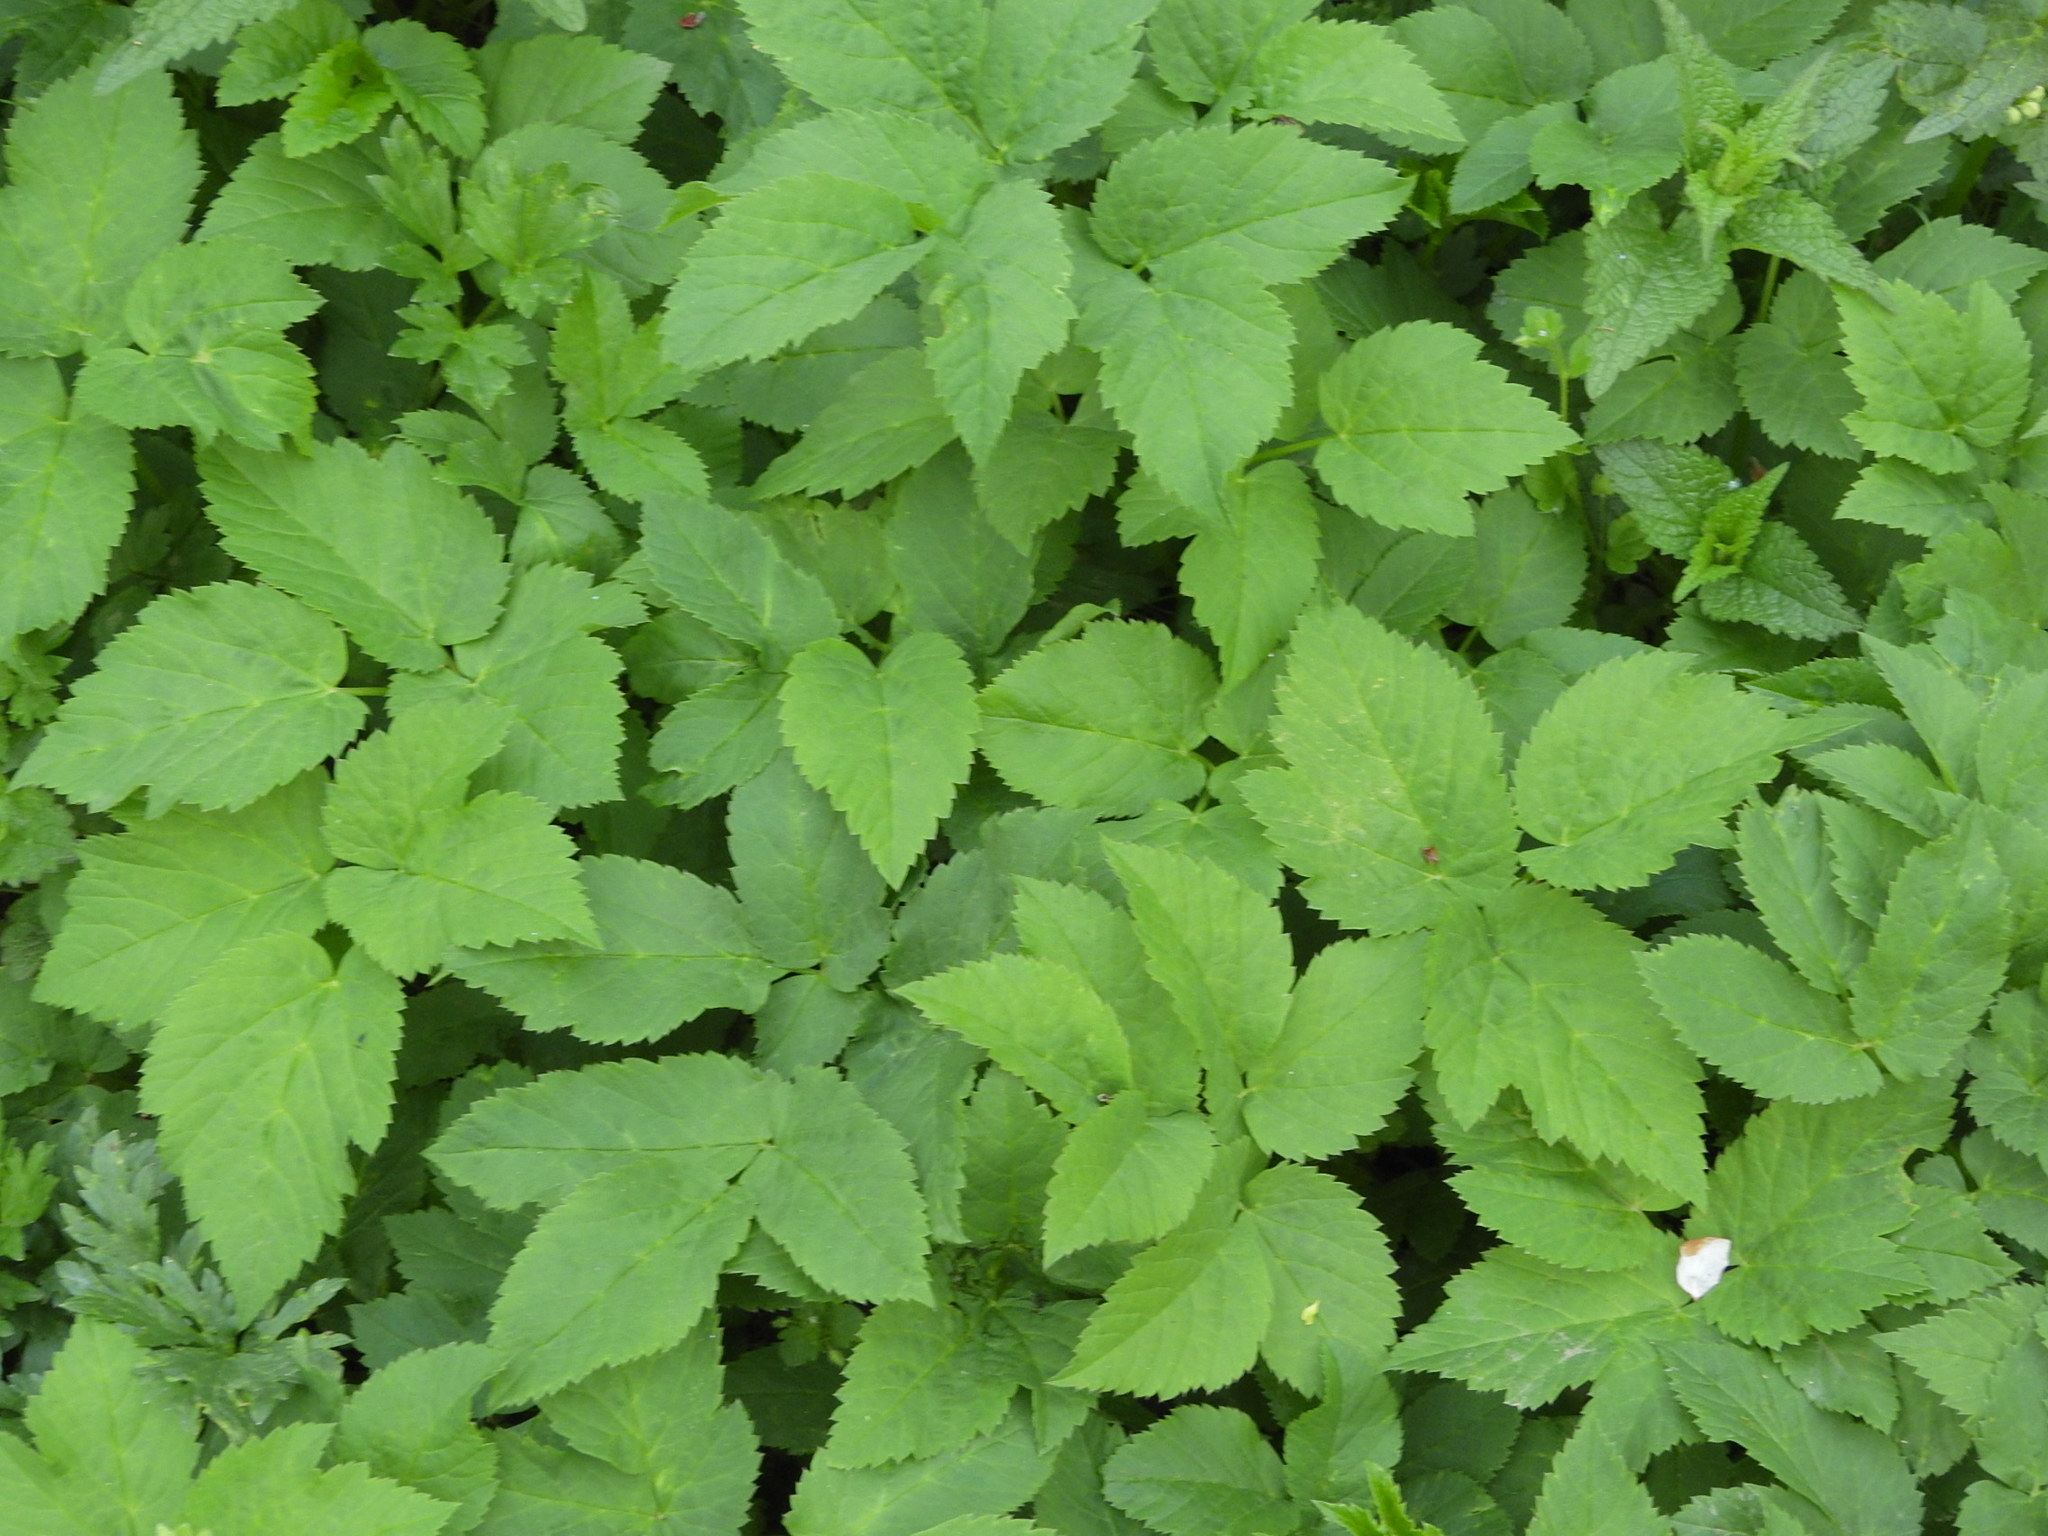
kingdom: Plantae
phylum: Tracheophyta
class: Magnoliopsida
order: Apiales
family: Apiaceae
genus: Aegopodium
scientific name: Aegopodium podagraria
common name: Ground-elder
